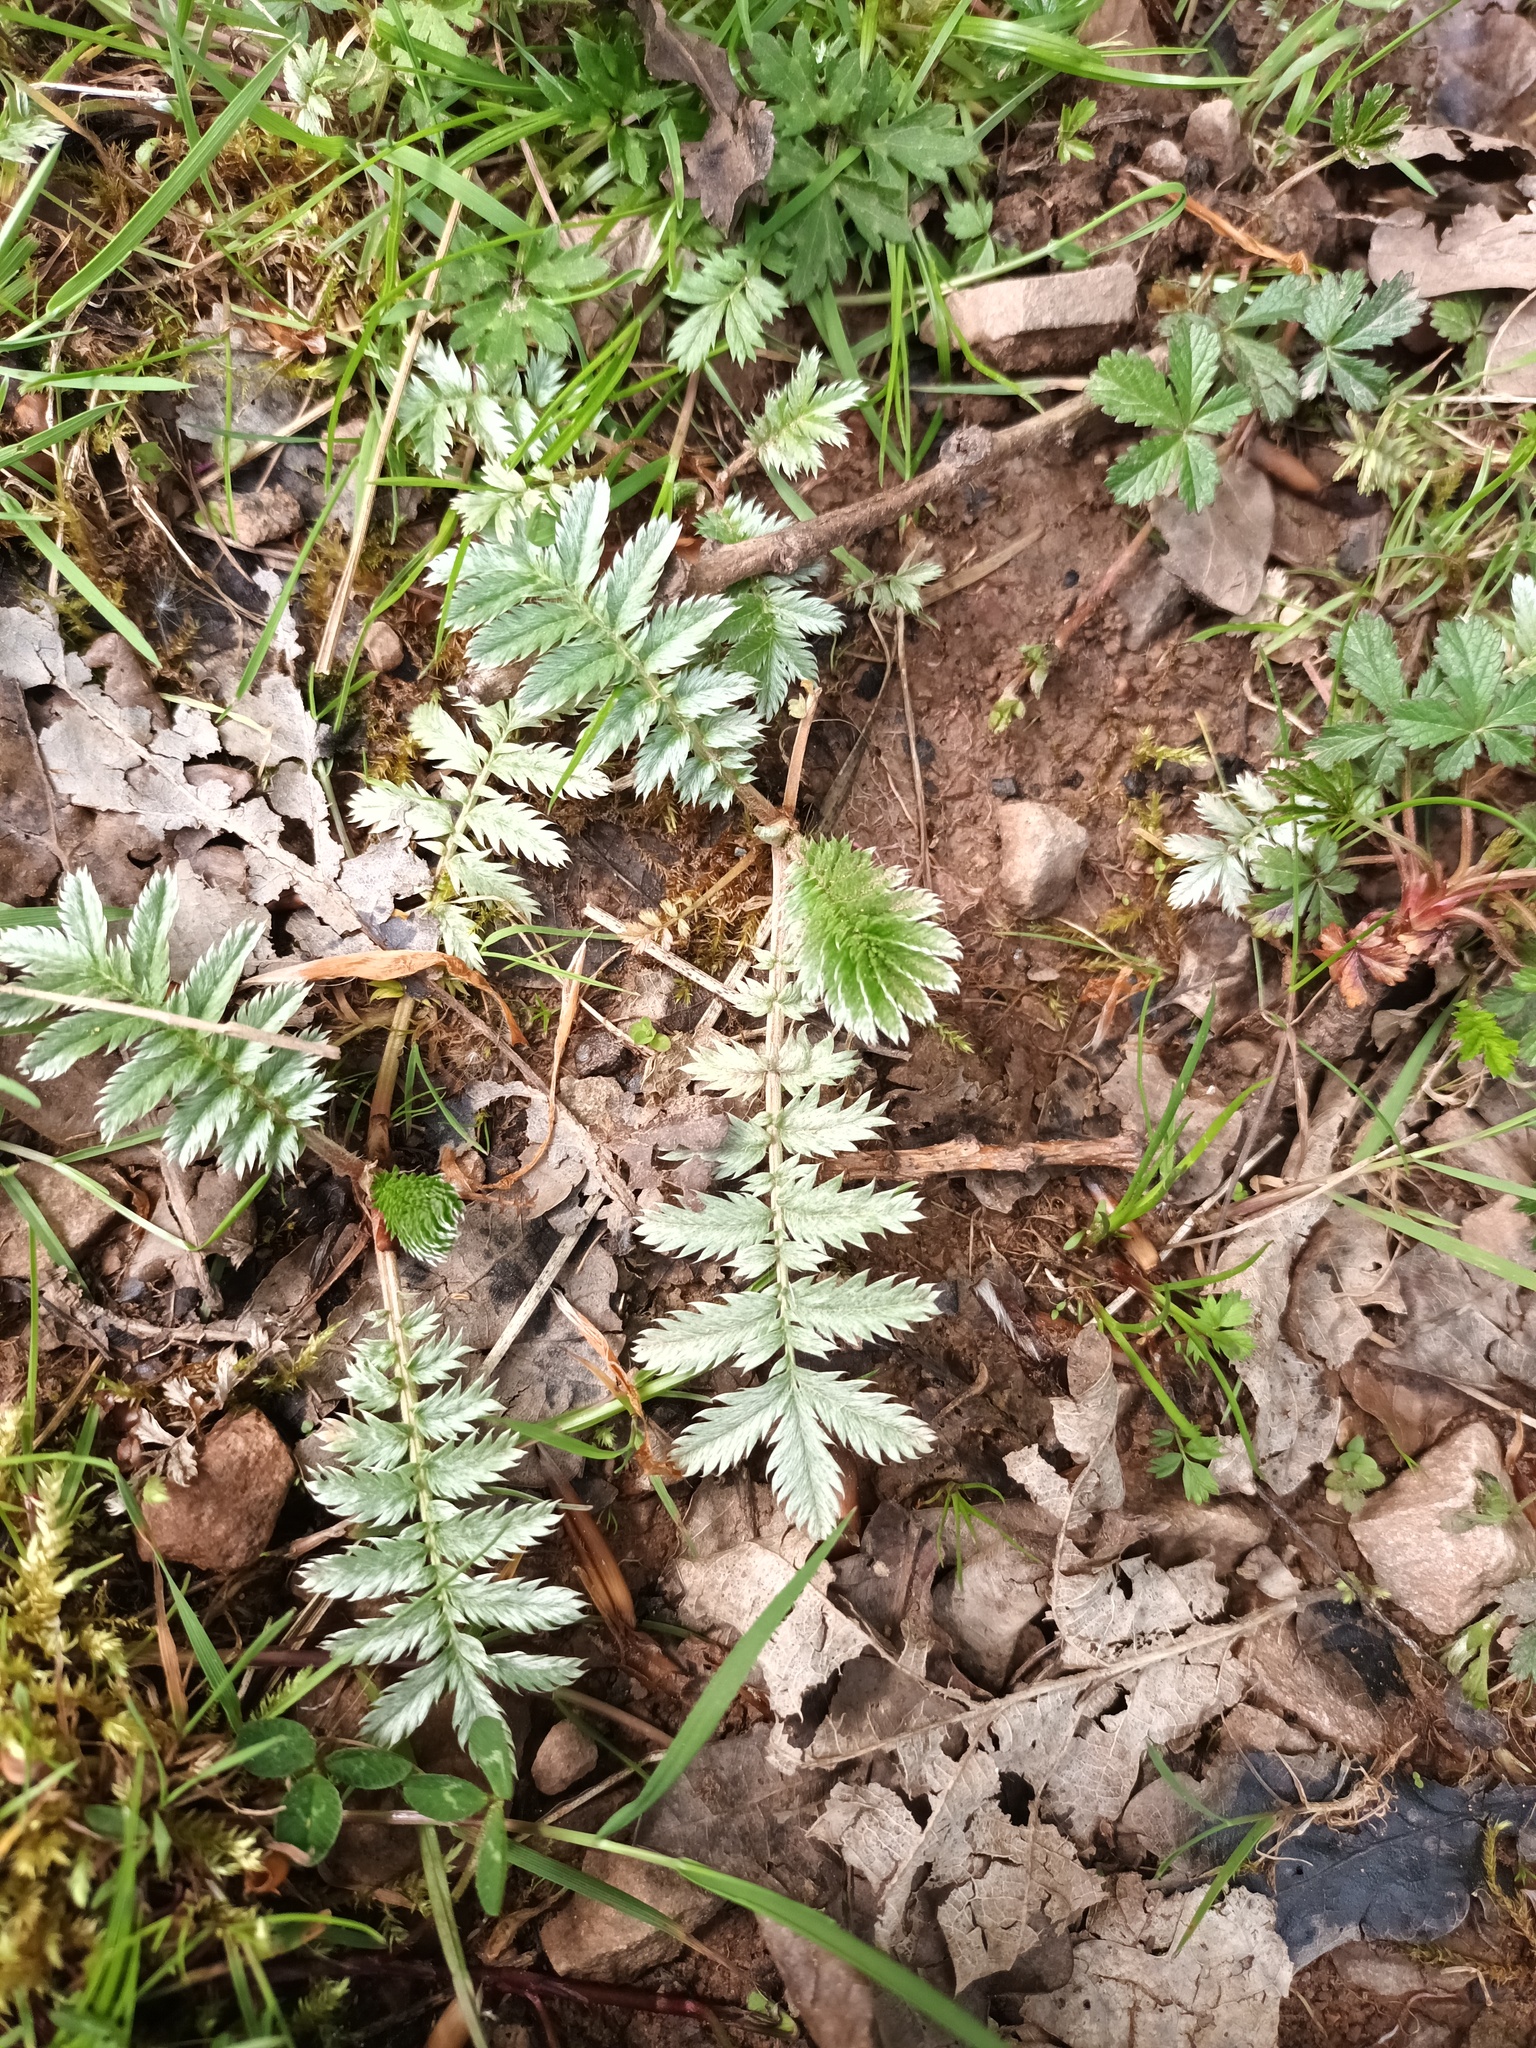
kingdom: Plantae
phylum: Tracheophyta
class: Magnoliopsida
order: Rosales
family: Rosaceae
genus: Argentina
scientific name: Argentina anserina
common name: Common silverweed
